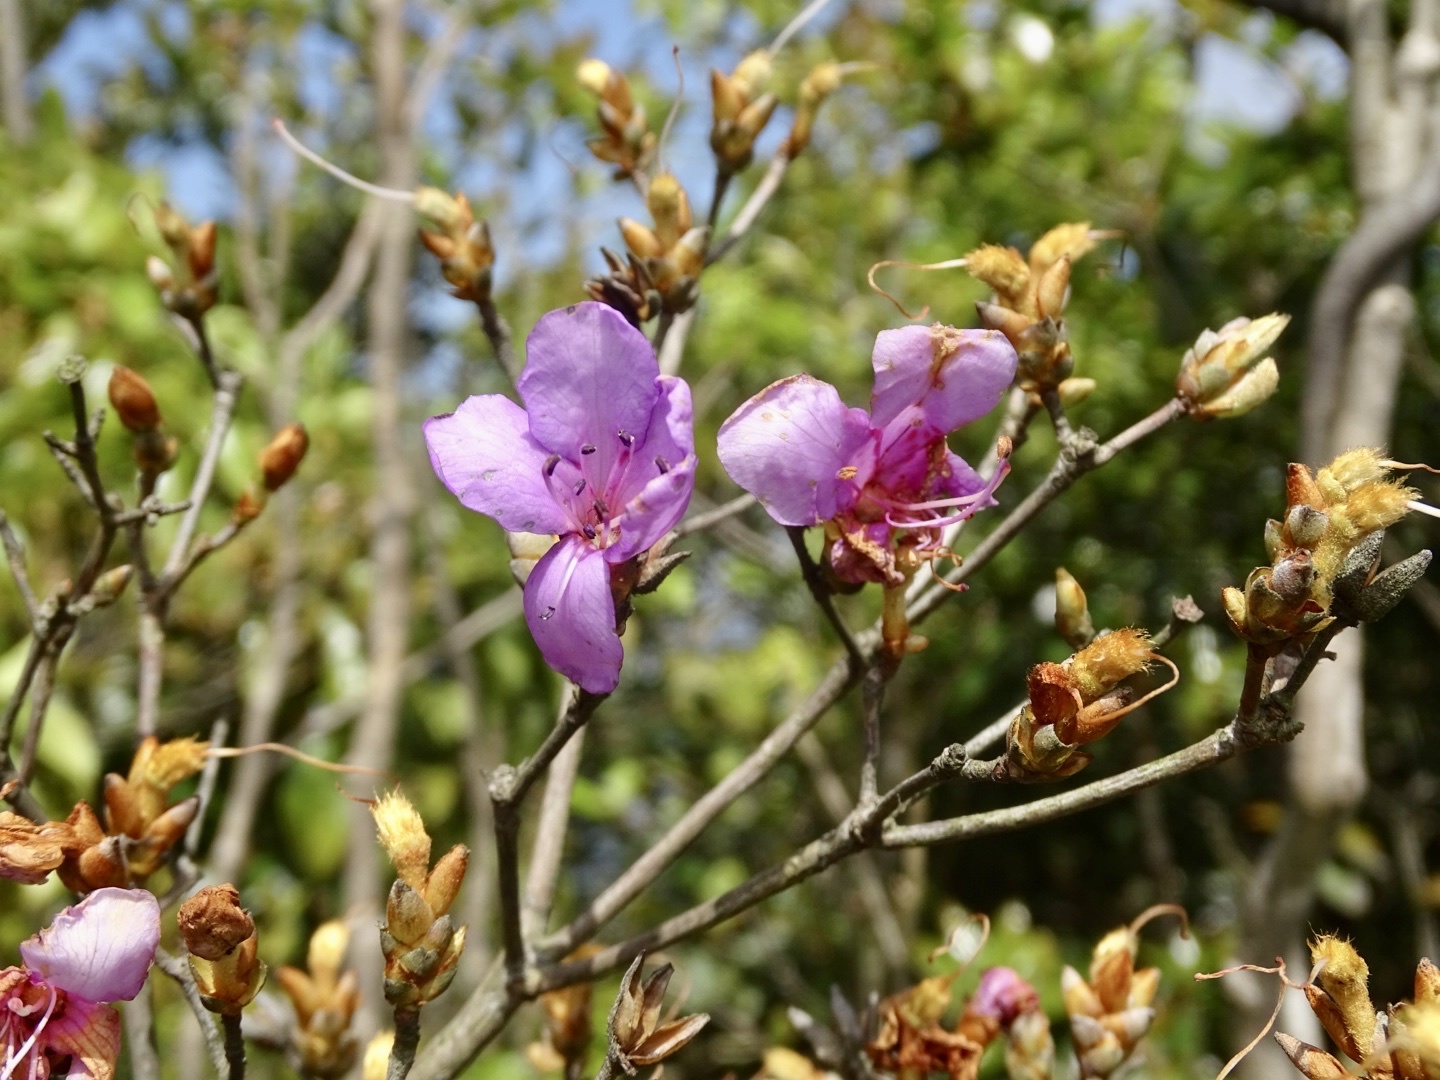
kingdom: Plantae
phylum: Tracheophyta
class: Magnoliopsida
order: Ericales
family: Ericaceae
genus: Rhododendron
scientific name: Rhododendron farrerae
